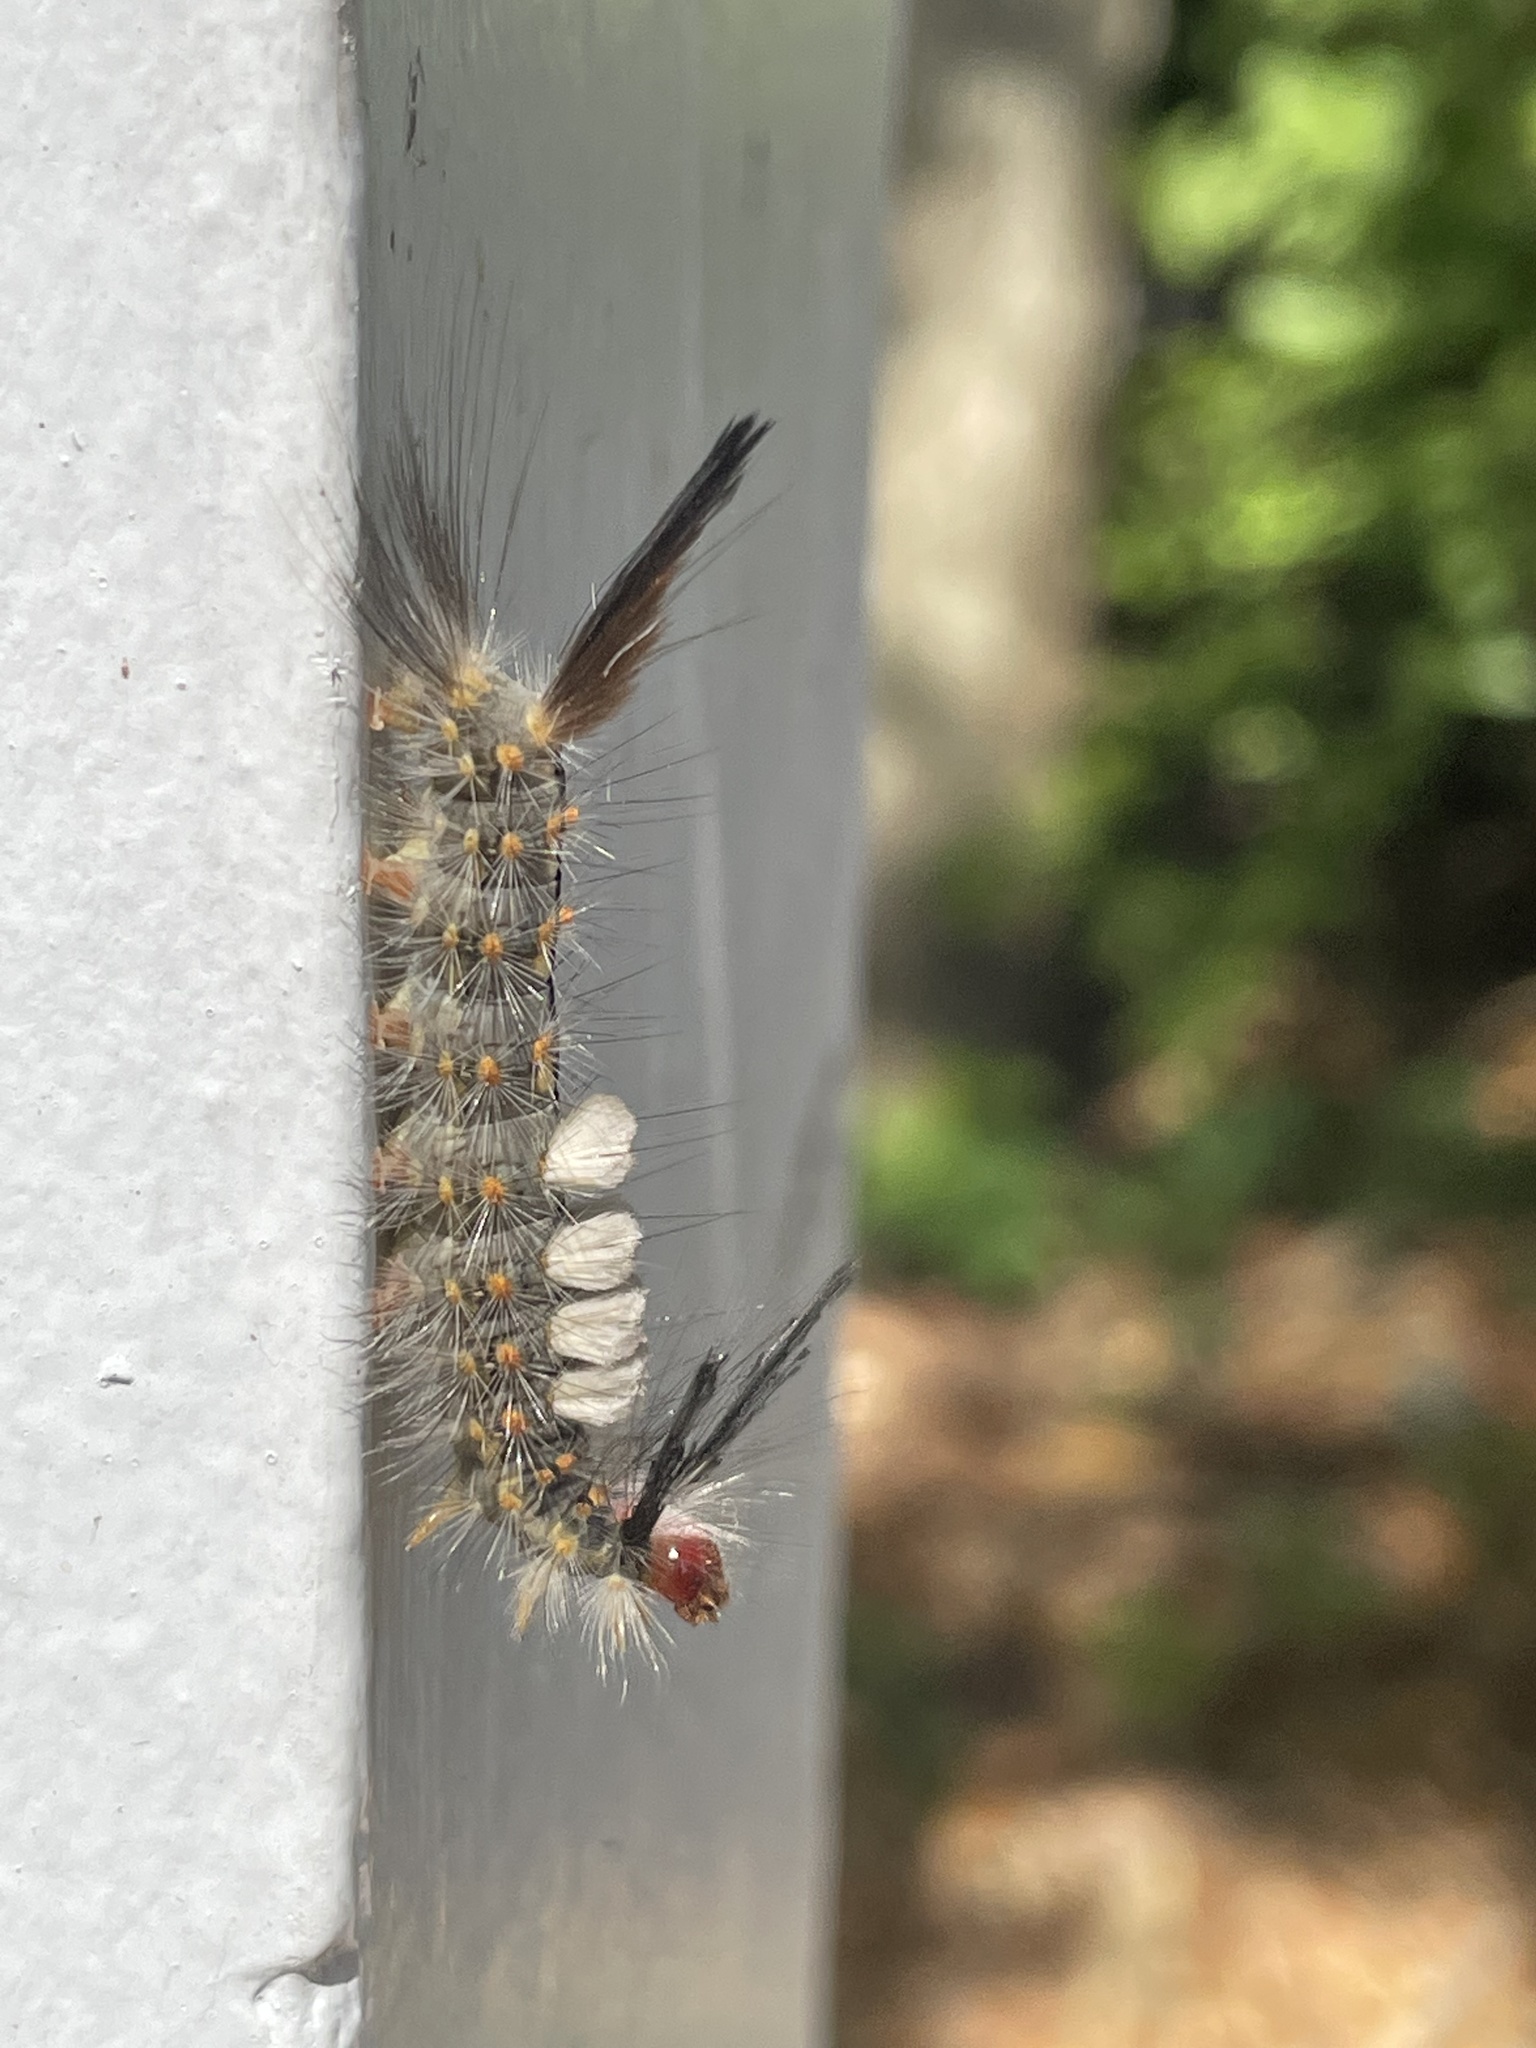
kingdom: Animalia
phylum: Arthropoda
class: Insecta
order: Lepidoptera
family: Erebidae
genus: Orgyia
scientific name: Orgyia detrita
